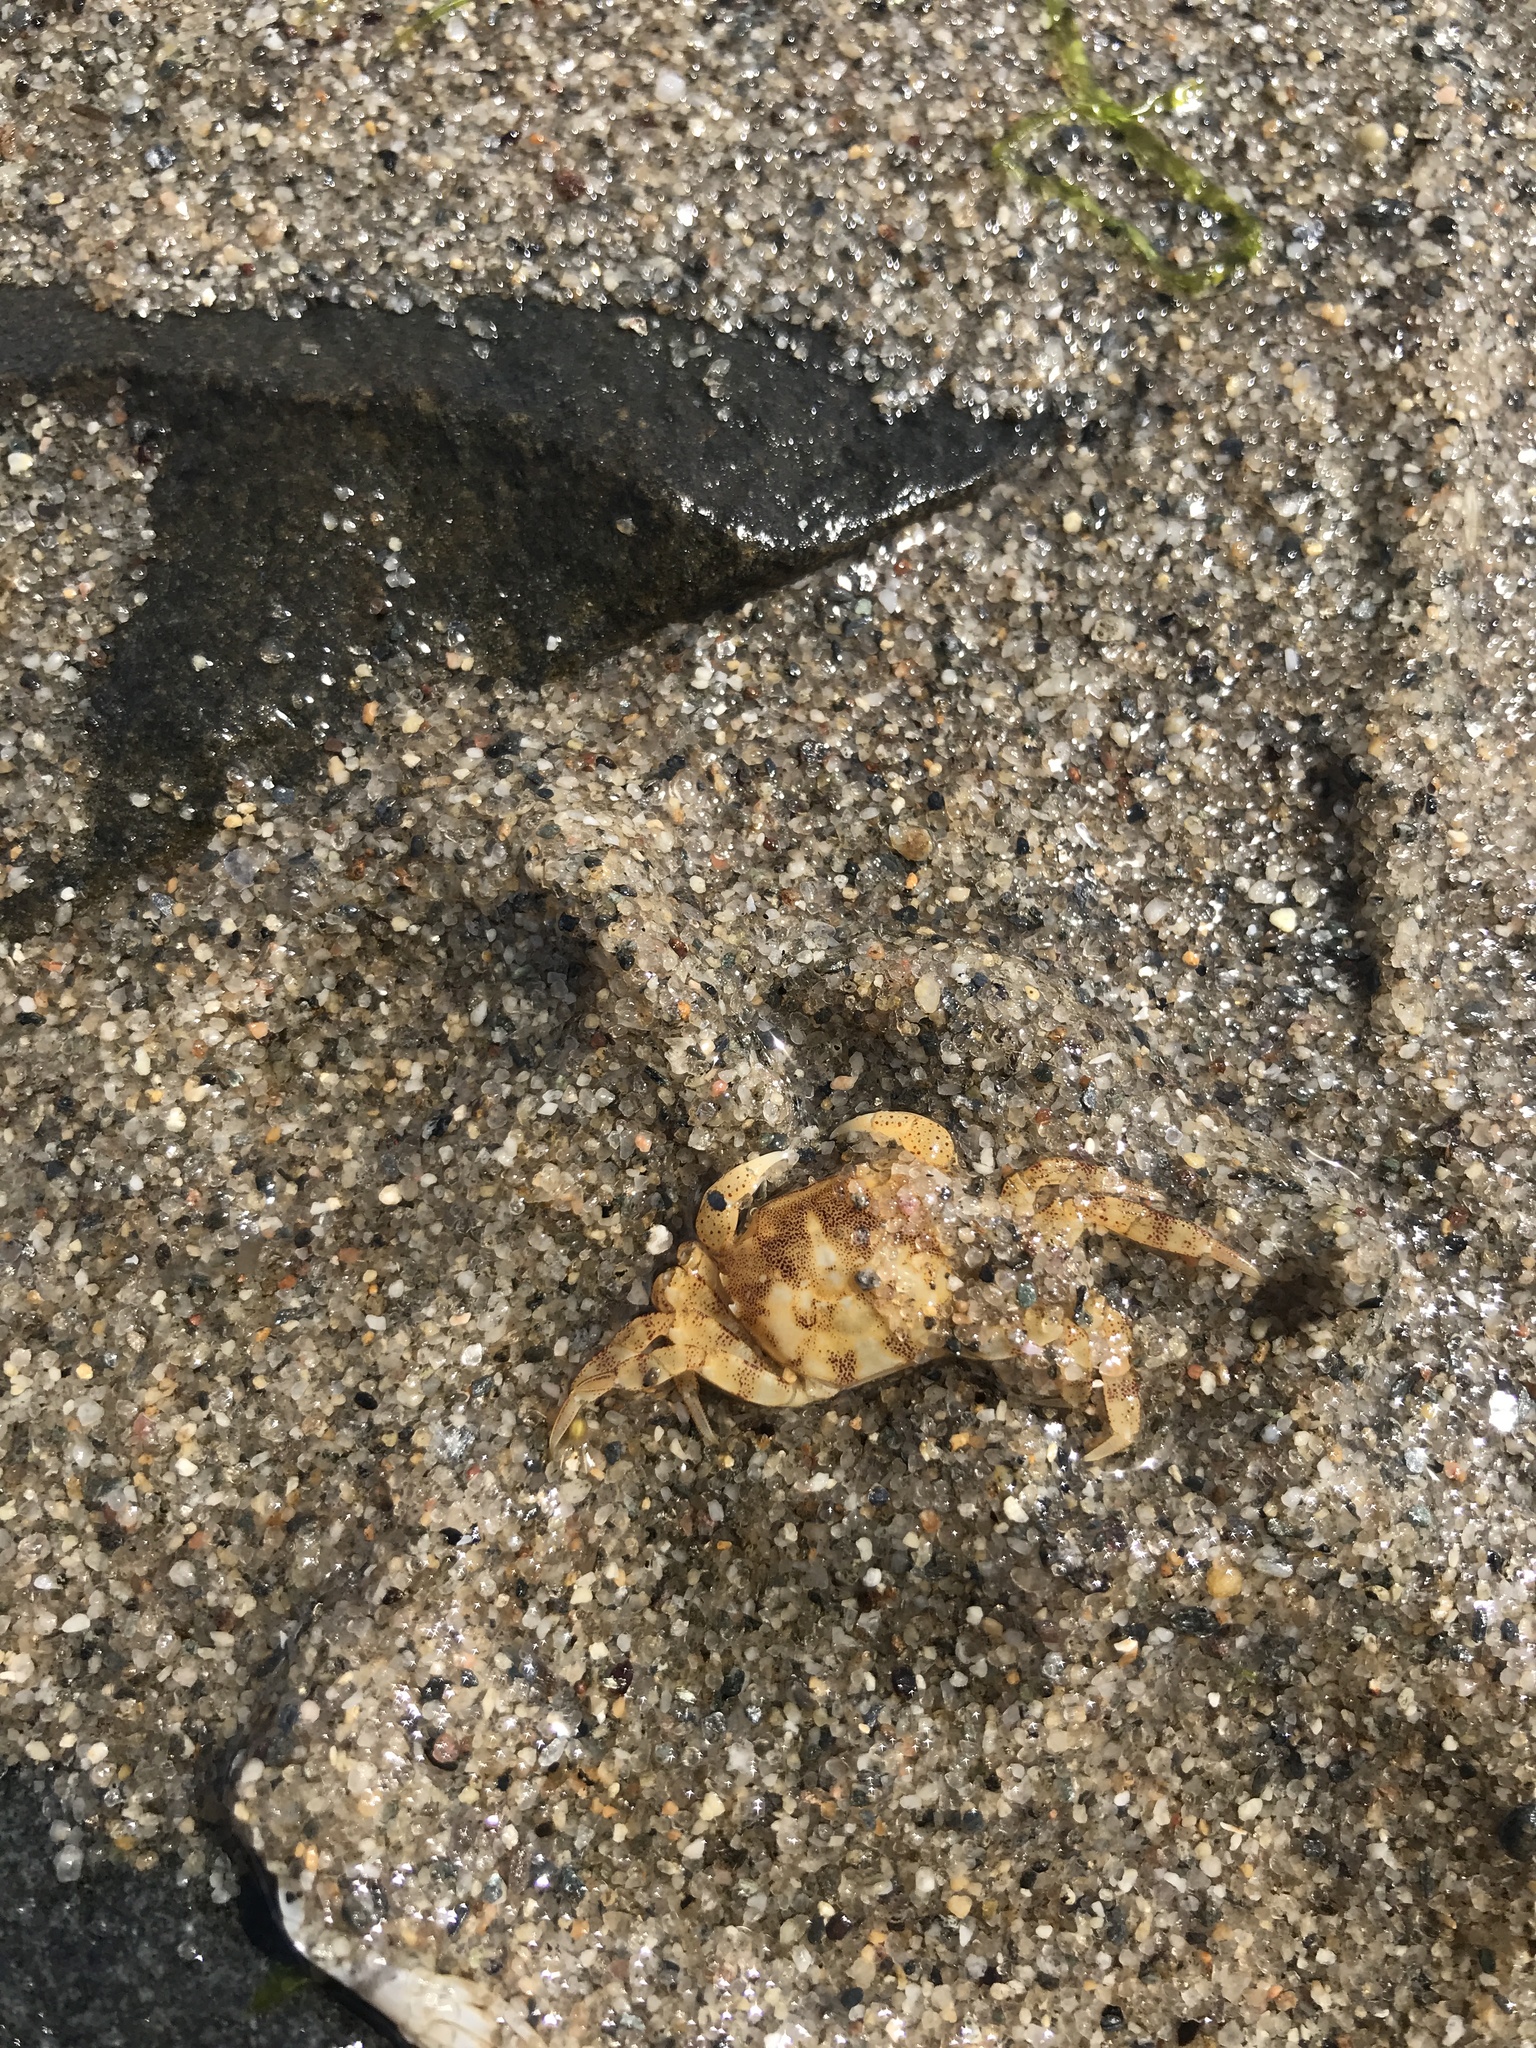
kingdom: Animalia
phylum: Arthropoda
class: Malacostraca
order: Decapoda
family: Varunidae
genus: Hemigrapsus
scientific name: Hemigrapsus sanguineus
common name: Asian shore crab
